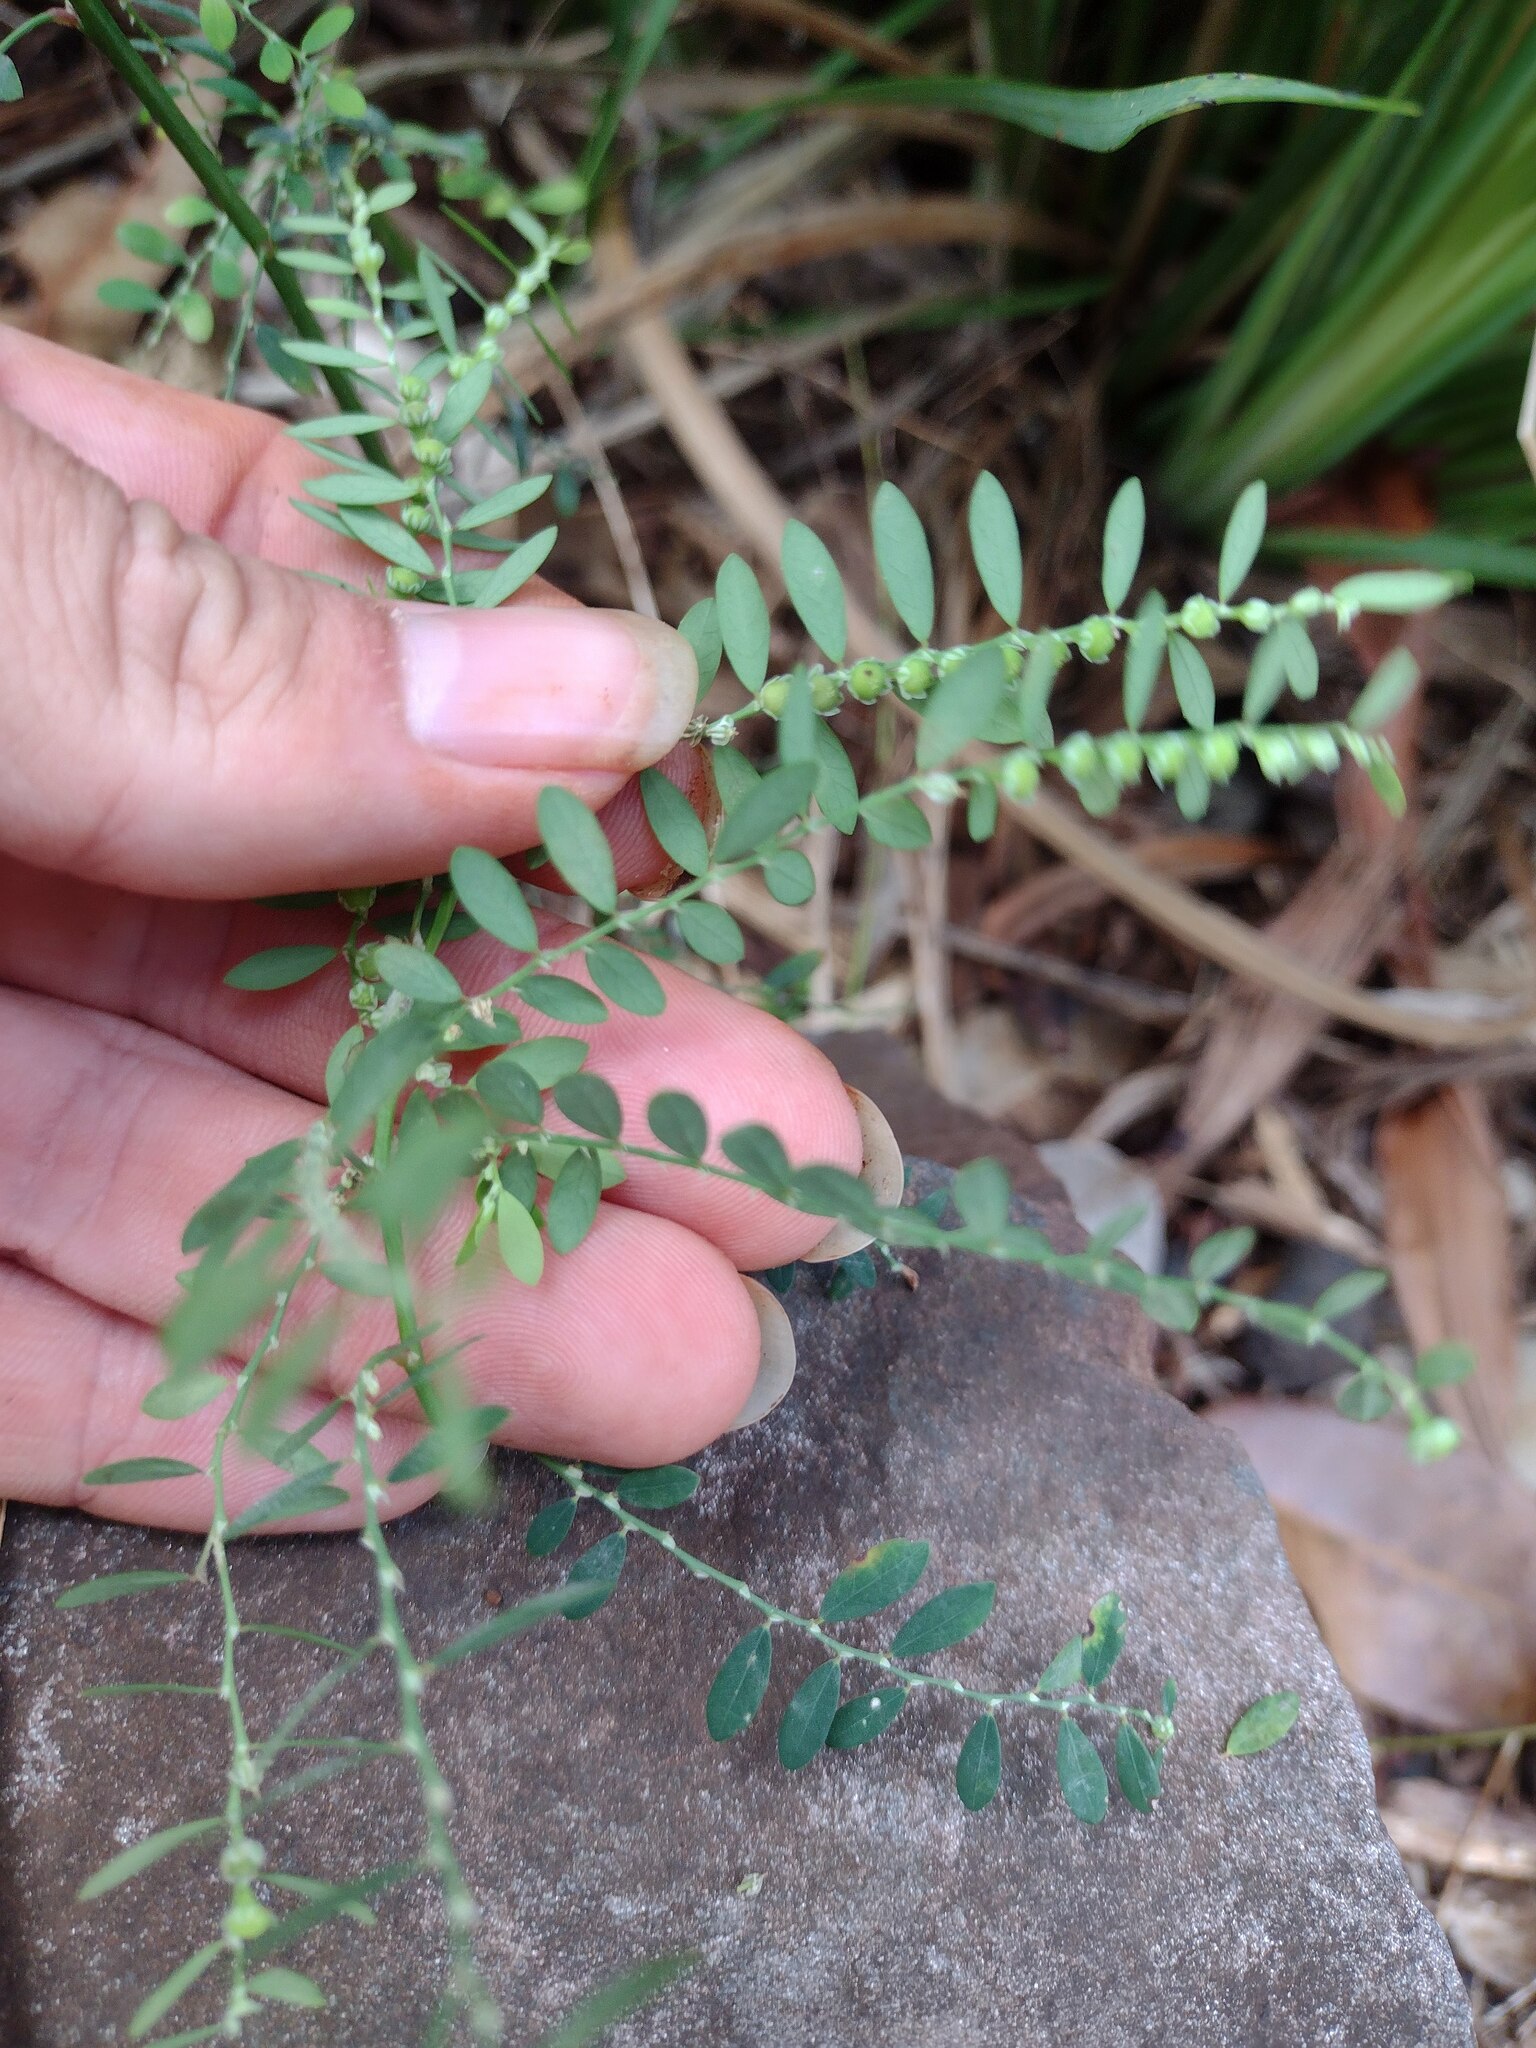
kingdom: Plantae
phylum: Tracheophyta
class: Magnoliopsida
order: Malpighiales
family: Phyllanthaceae
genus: Phyllanthus
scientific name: Phyllanthus debilis
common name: Niruri
